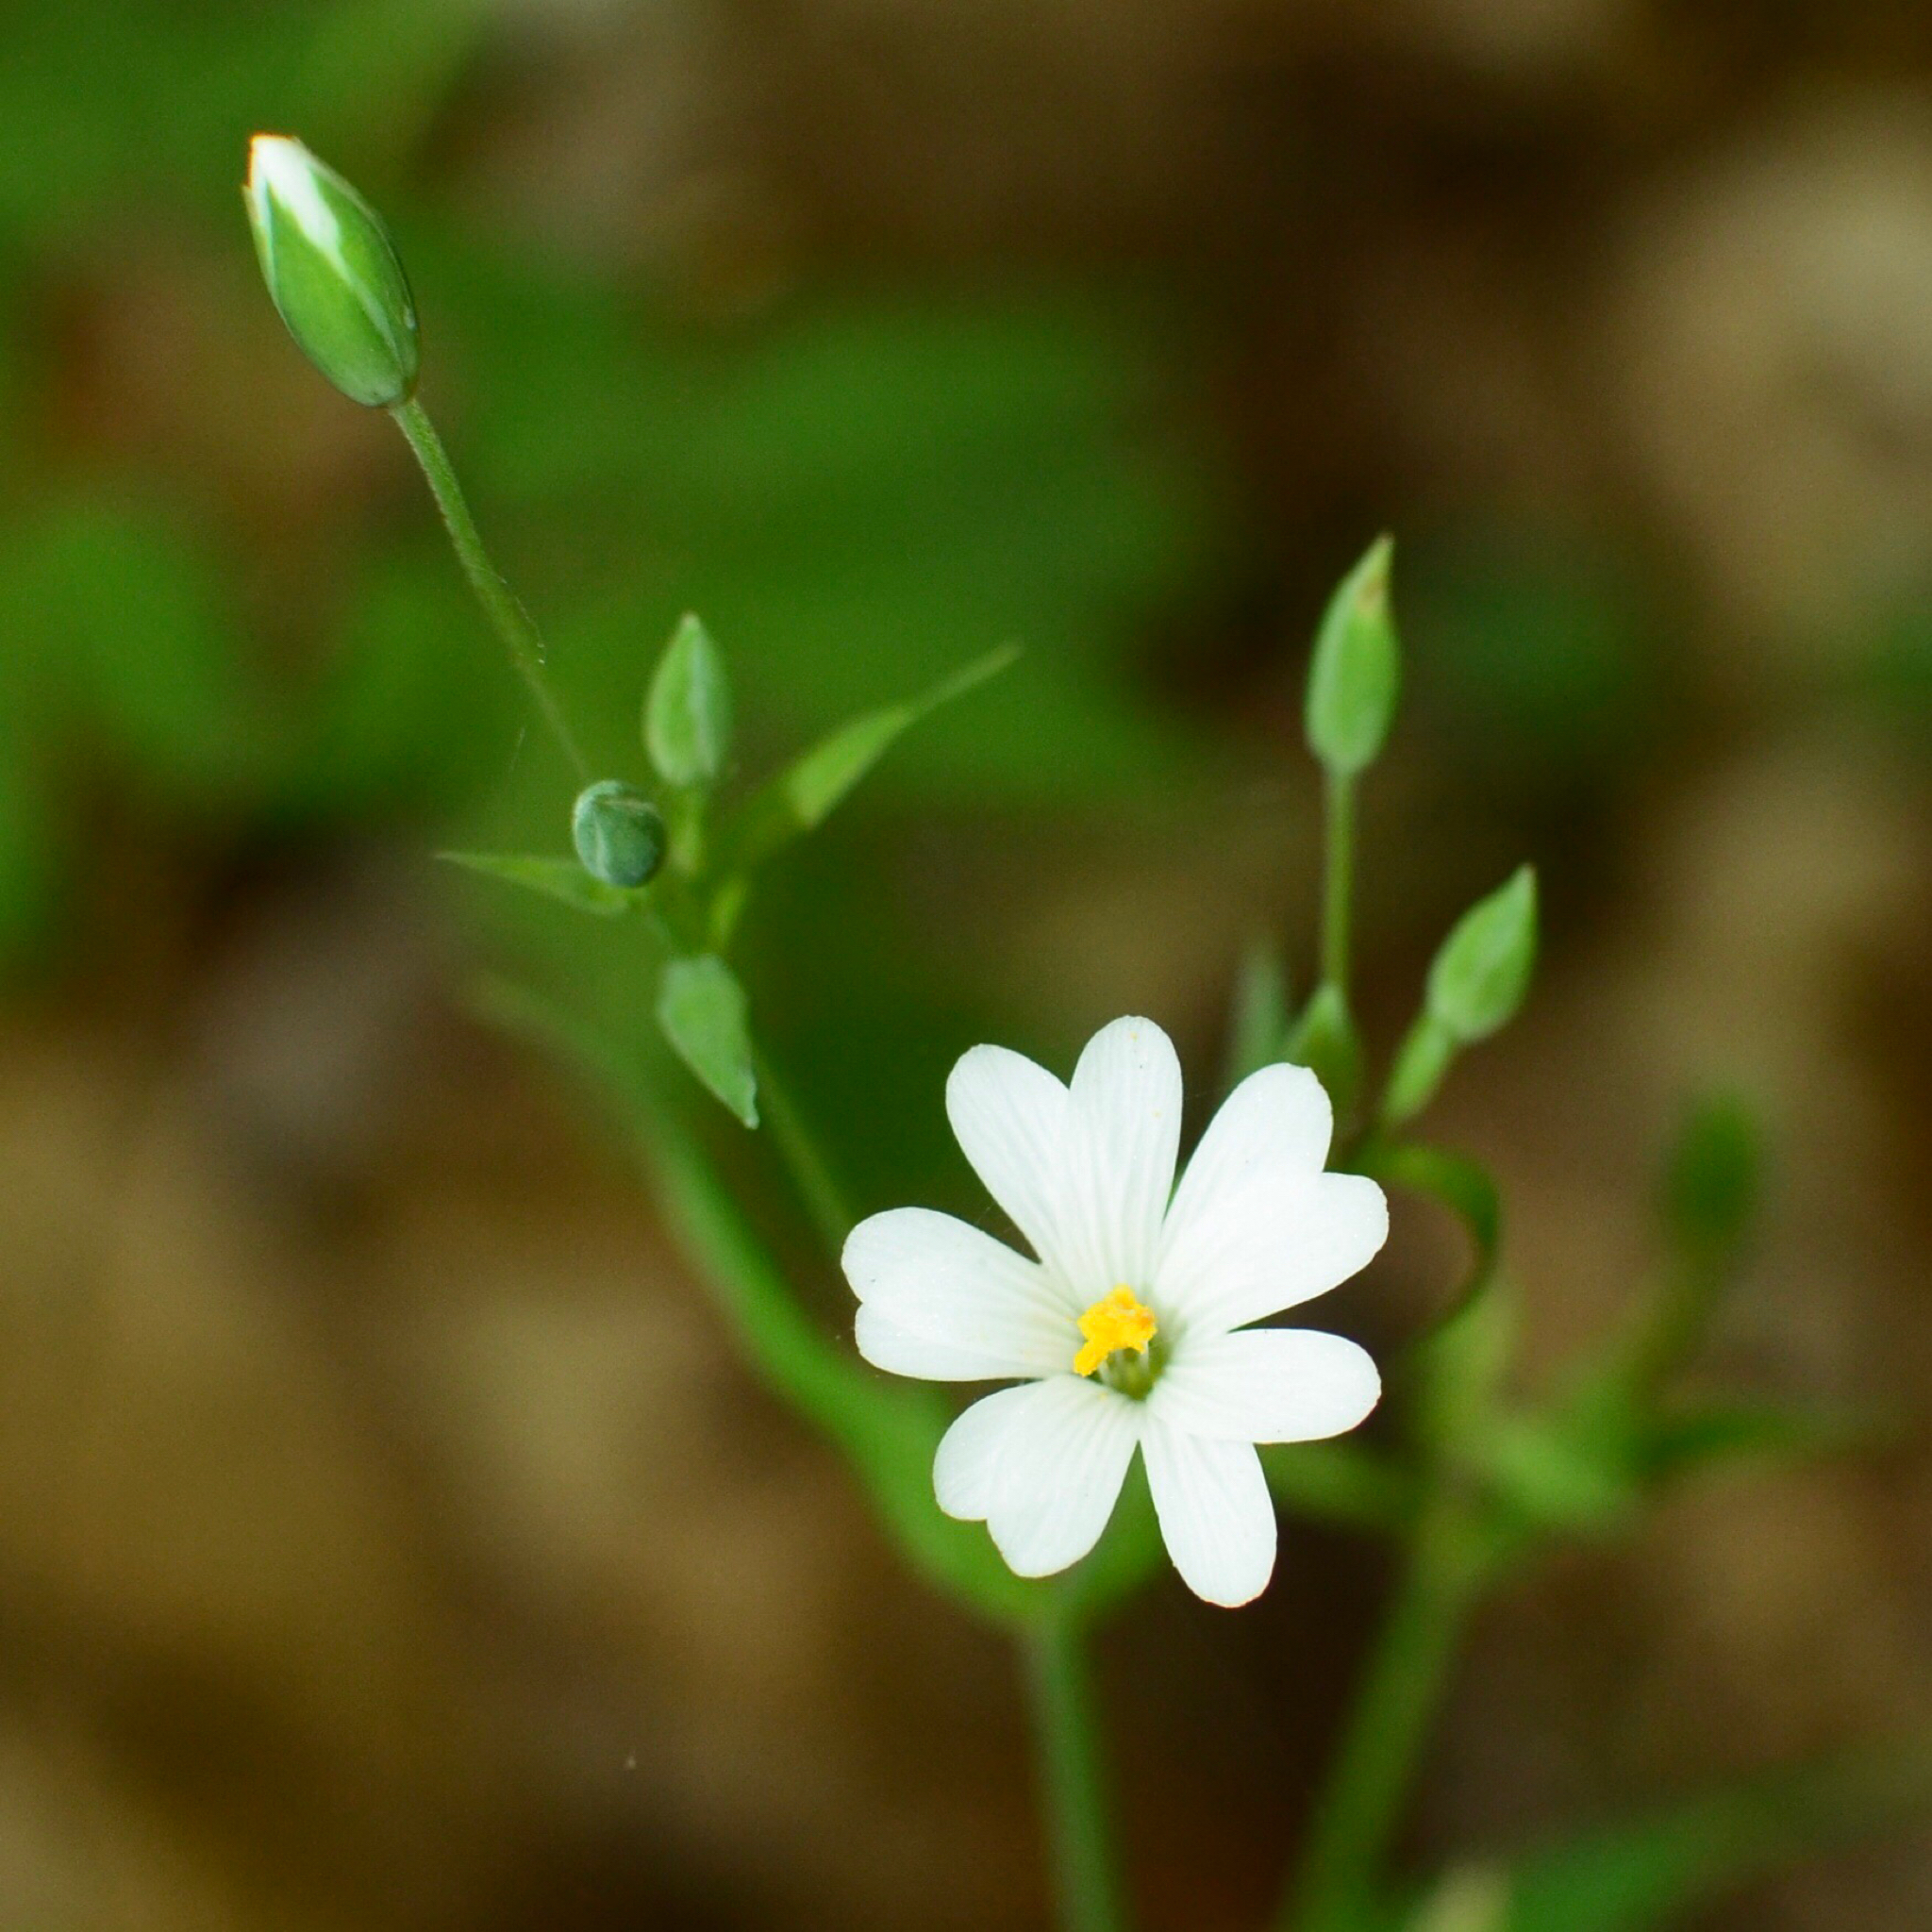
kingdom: Plantae
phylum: Tracheophyta
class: Magnoliopsida
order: Caryophyllales
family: Caryophyllaceae
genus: Rabelera
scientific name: Rabelera holostea
